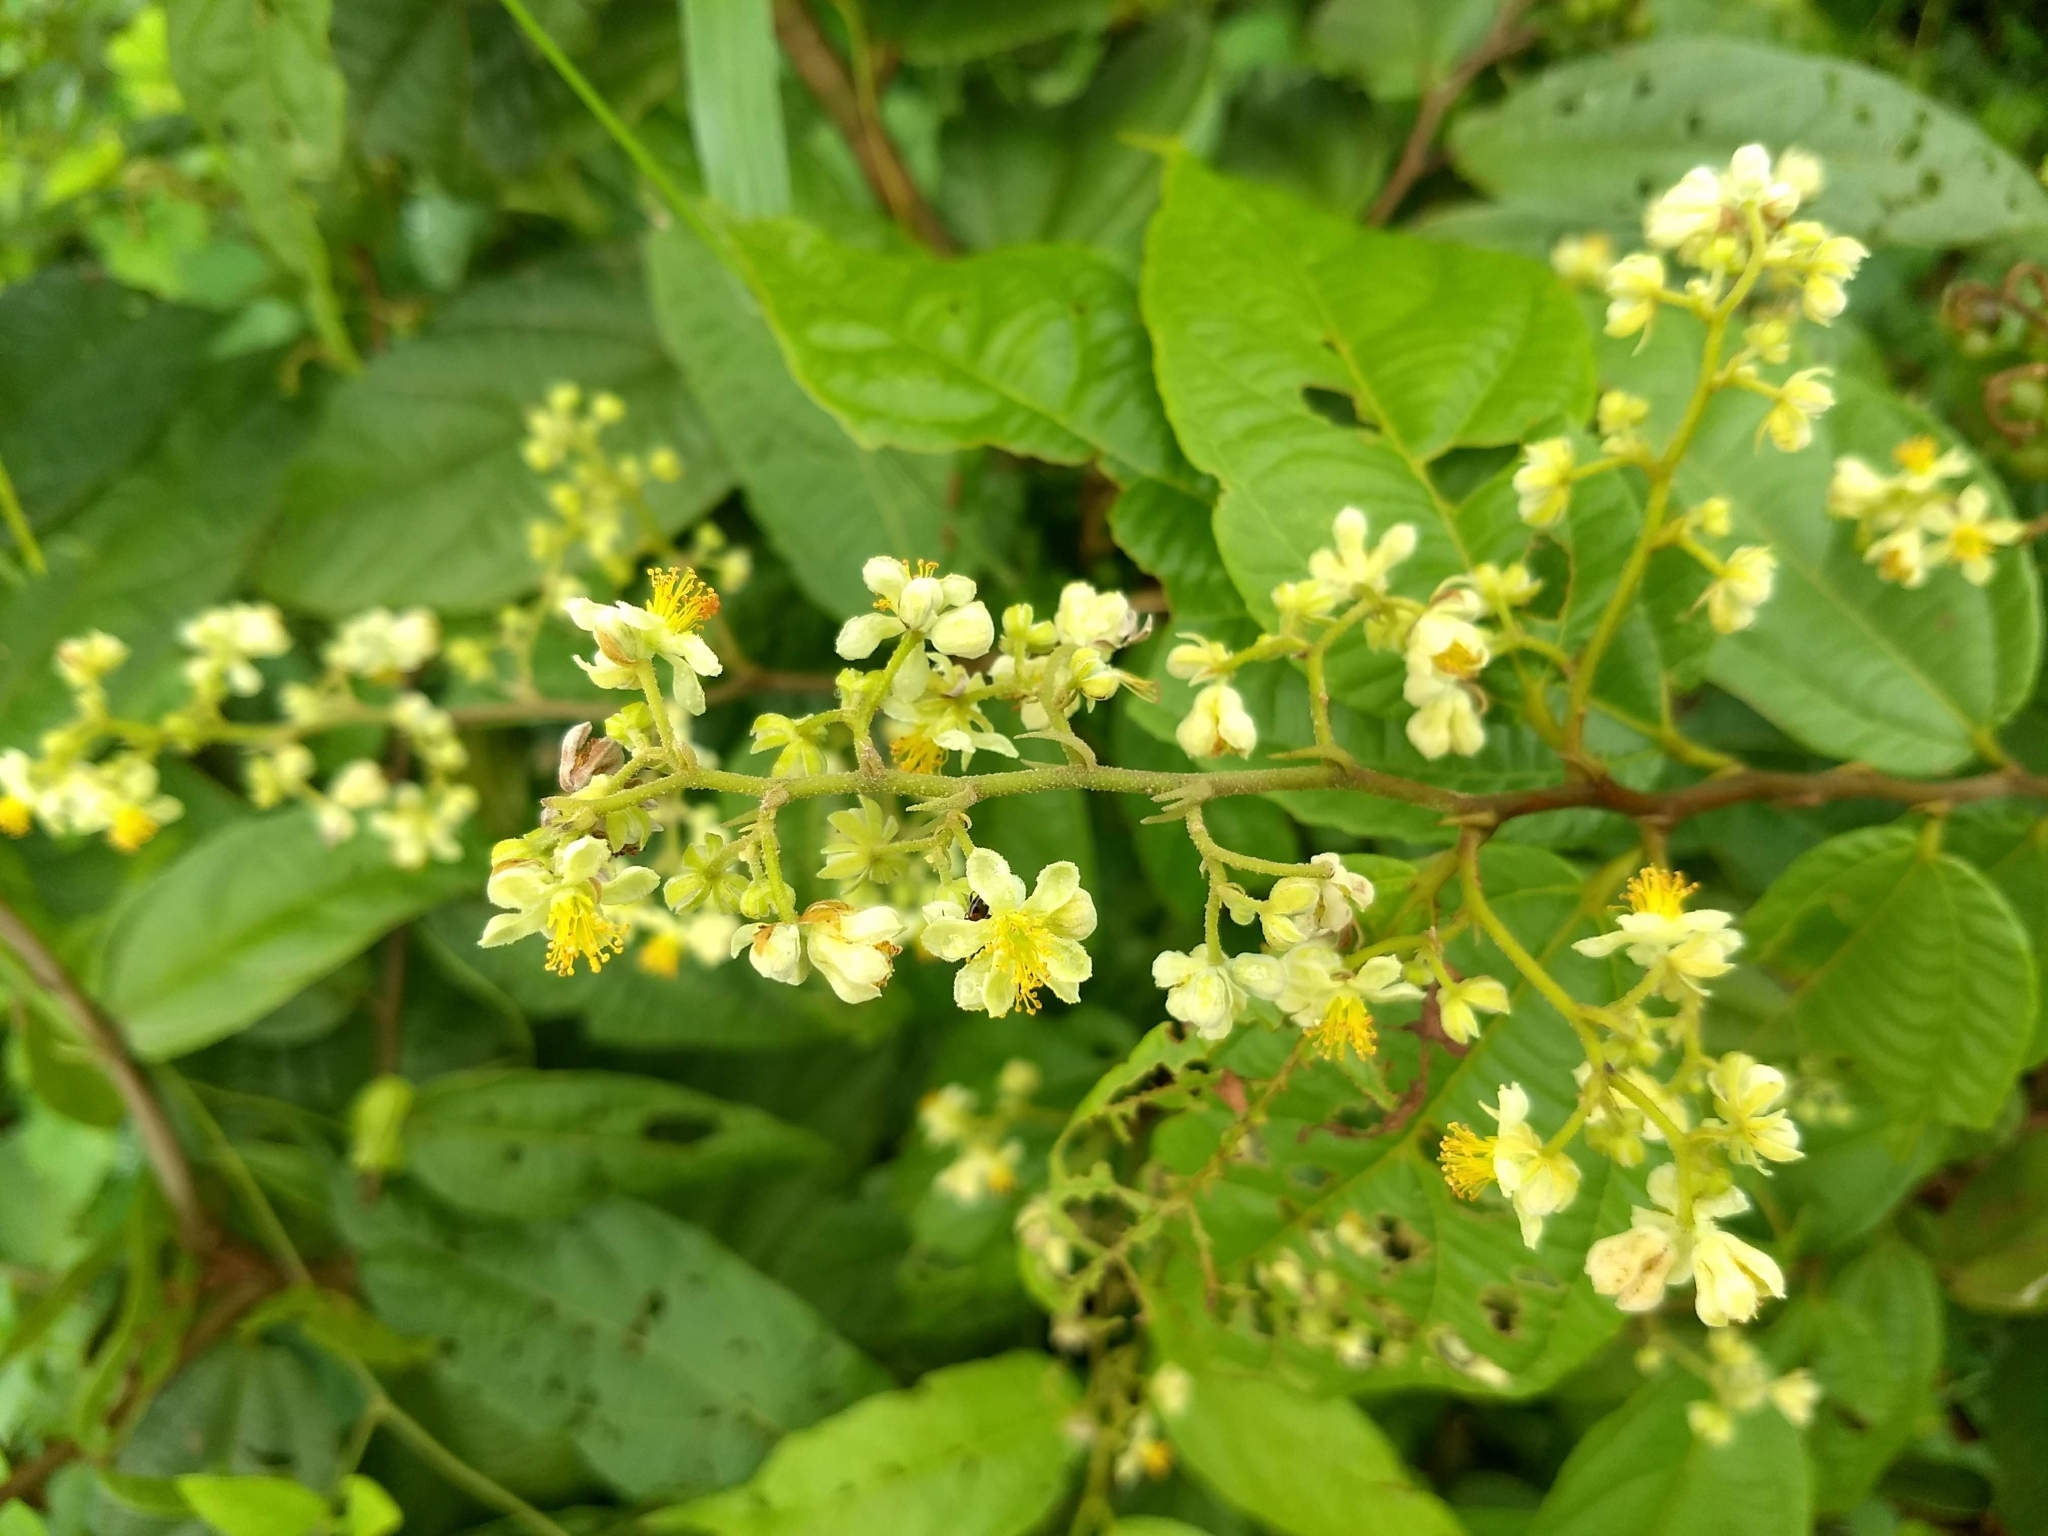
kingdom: Plantae
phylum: Tracheophyta
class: Magnoliopsida
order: Malvales
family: Malvaceae
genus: Microcos
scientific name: Microcos paniculata
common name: Microcos
